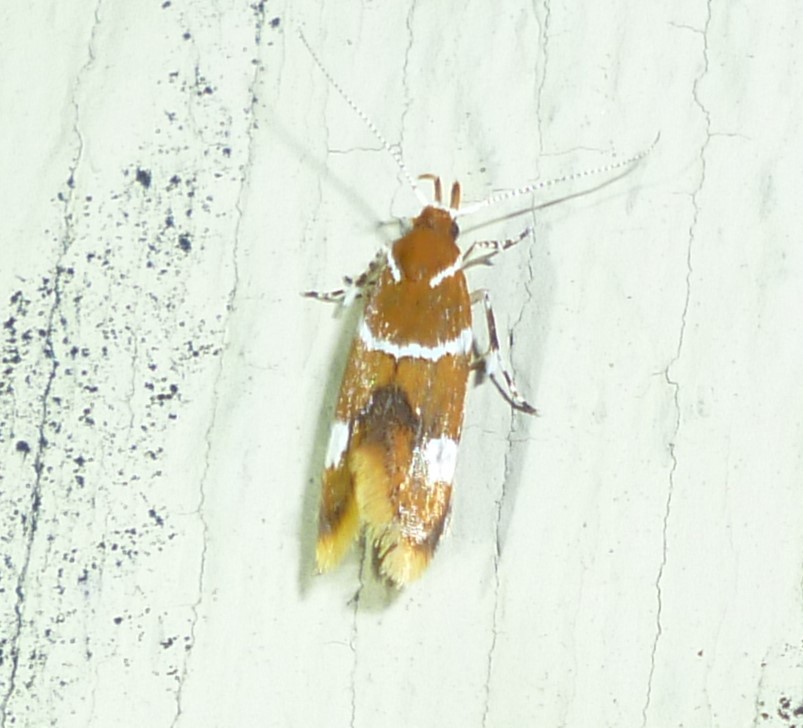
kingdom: Animalia
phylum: Arthropoda
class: Insecta
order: Lepidoptera
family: Oecophoridae
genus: Promalactis
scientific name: Promalactis suzukiella
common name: Moth
